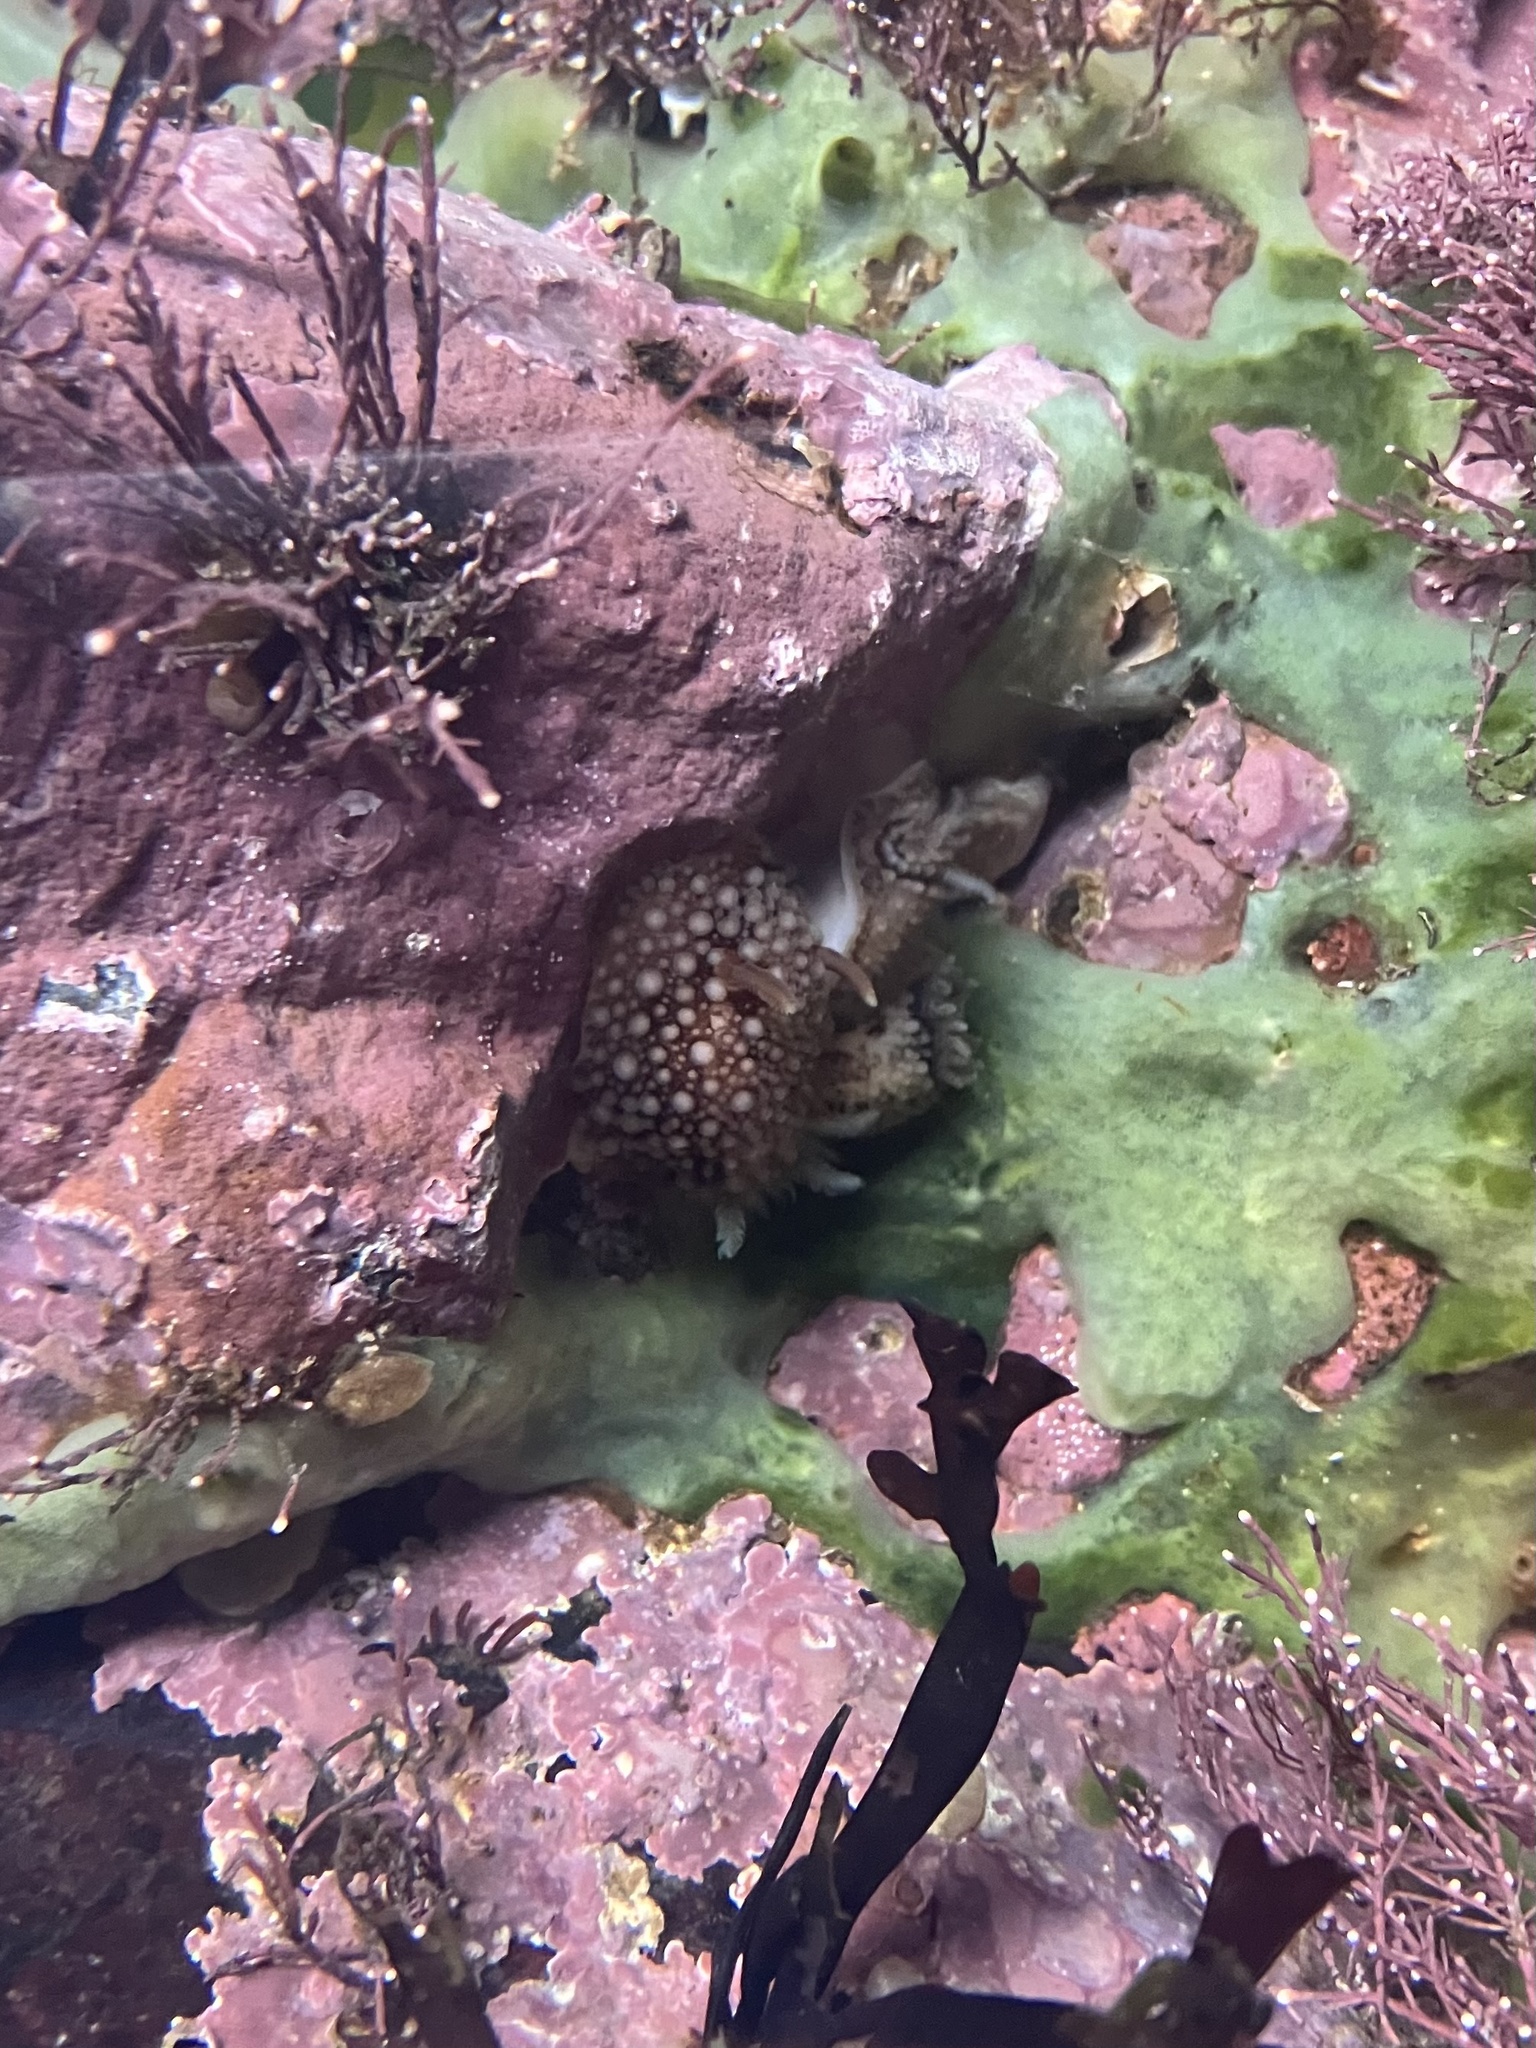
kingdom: Animalia
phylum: Mollusca
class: Gastropoda
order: Nudibranchia
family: Onchidorididae
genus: Onchidoris
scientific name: Onchidoris bilamellata
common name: Barnacle-eating onchidoris
